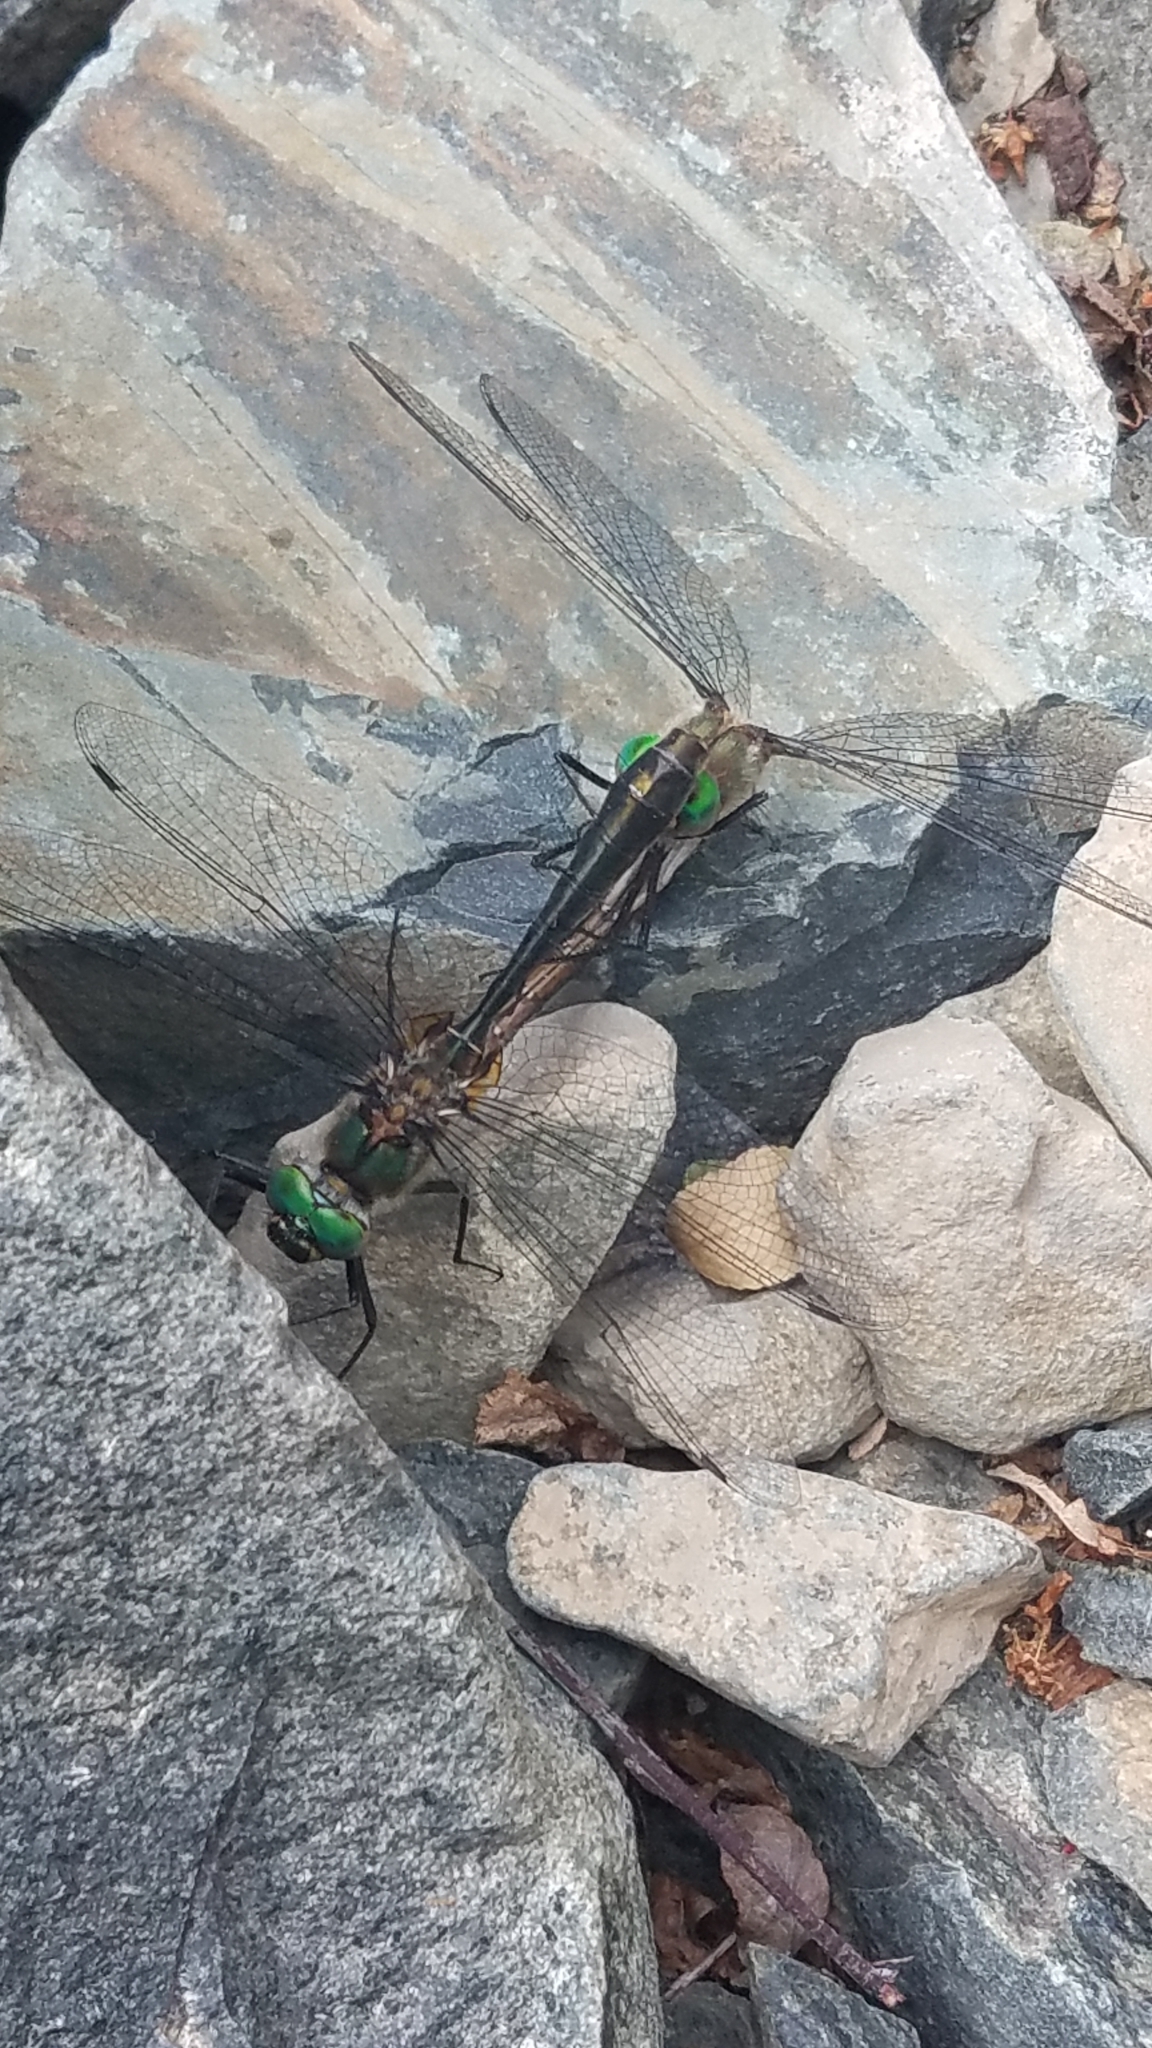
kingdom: Animalia
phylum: Arthropoda
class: Insecta
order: Odonata
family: Corduliidae
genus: Cordulia
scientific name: Cordulia shurtleffii
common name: American emerald
